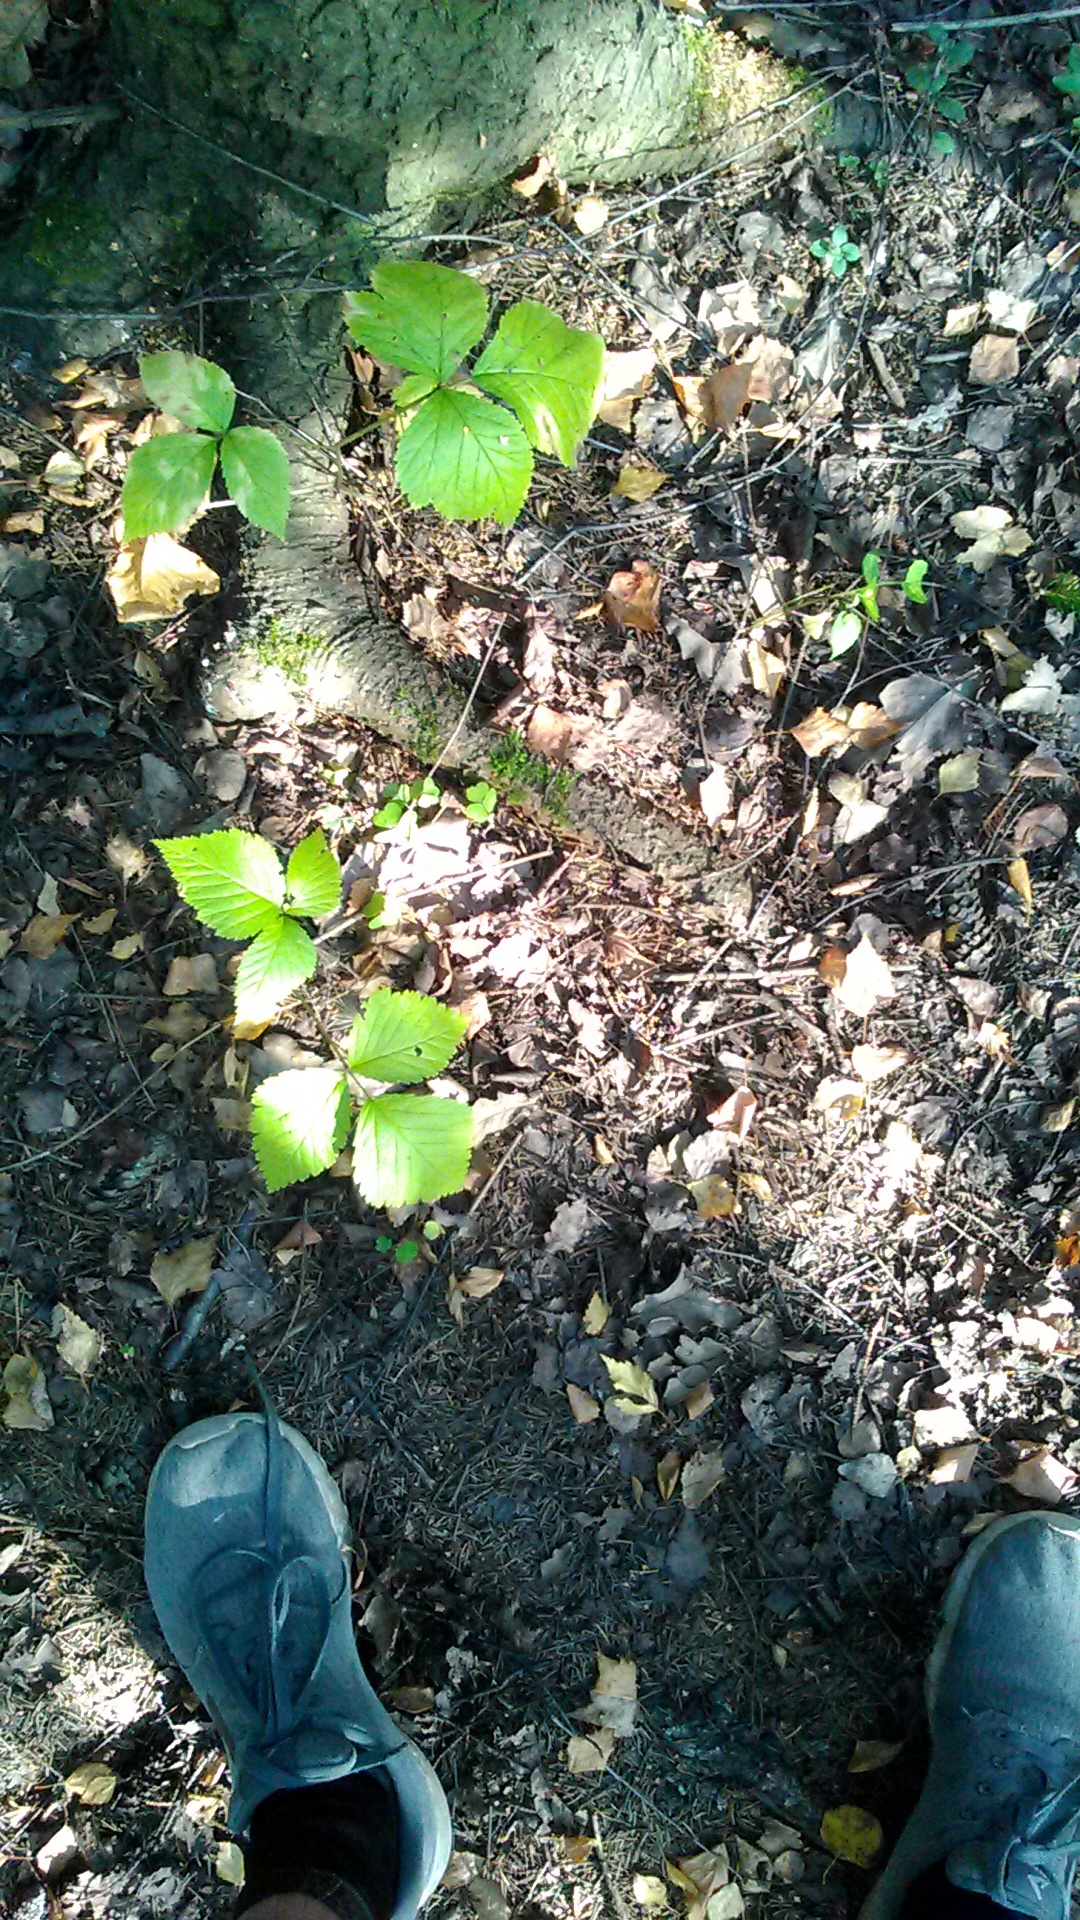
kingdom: Plantae
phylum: Tracheophyta
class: Magnoliopsida
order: Rosales
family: Rosaceae
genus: Rubus
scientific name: Rubus saxatilis
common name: Stone bramble
